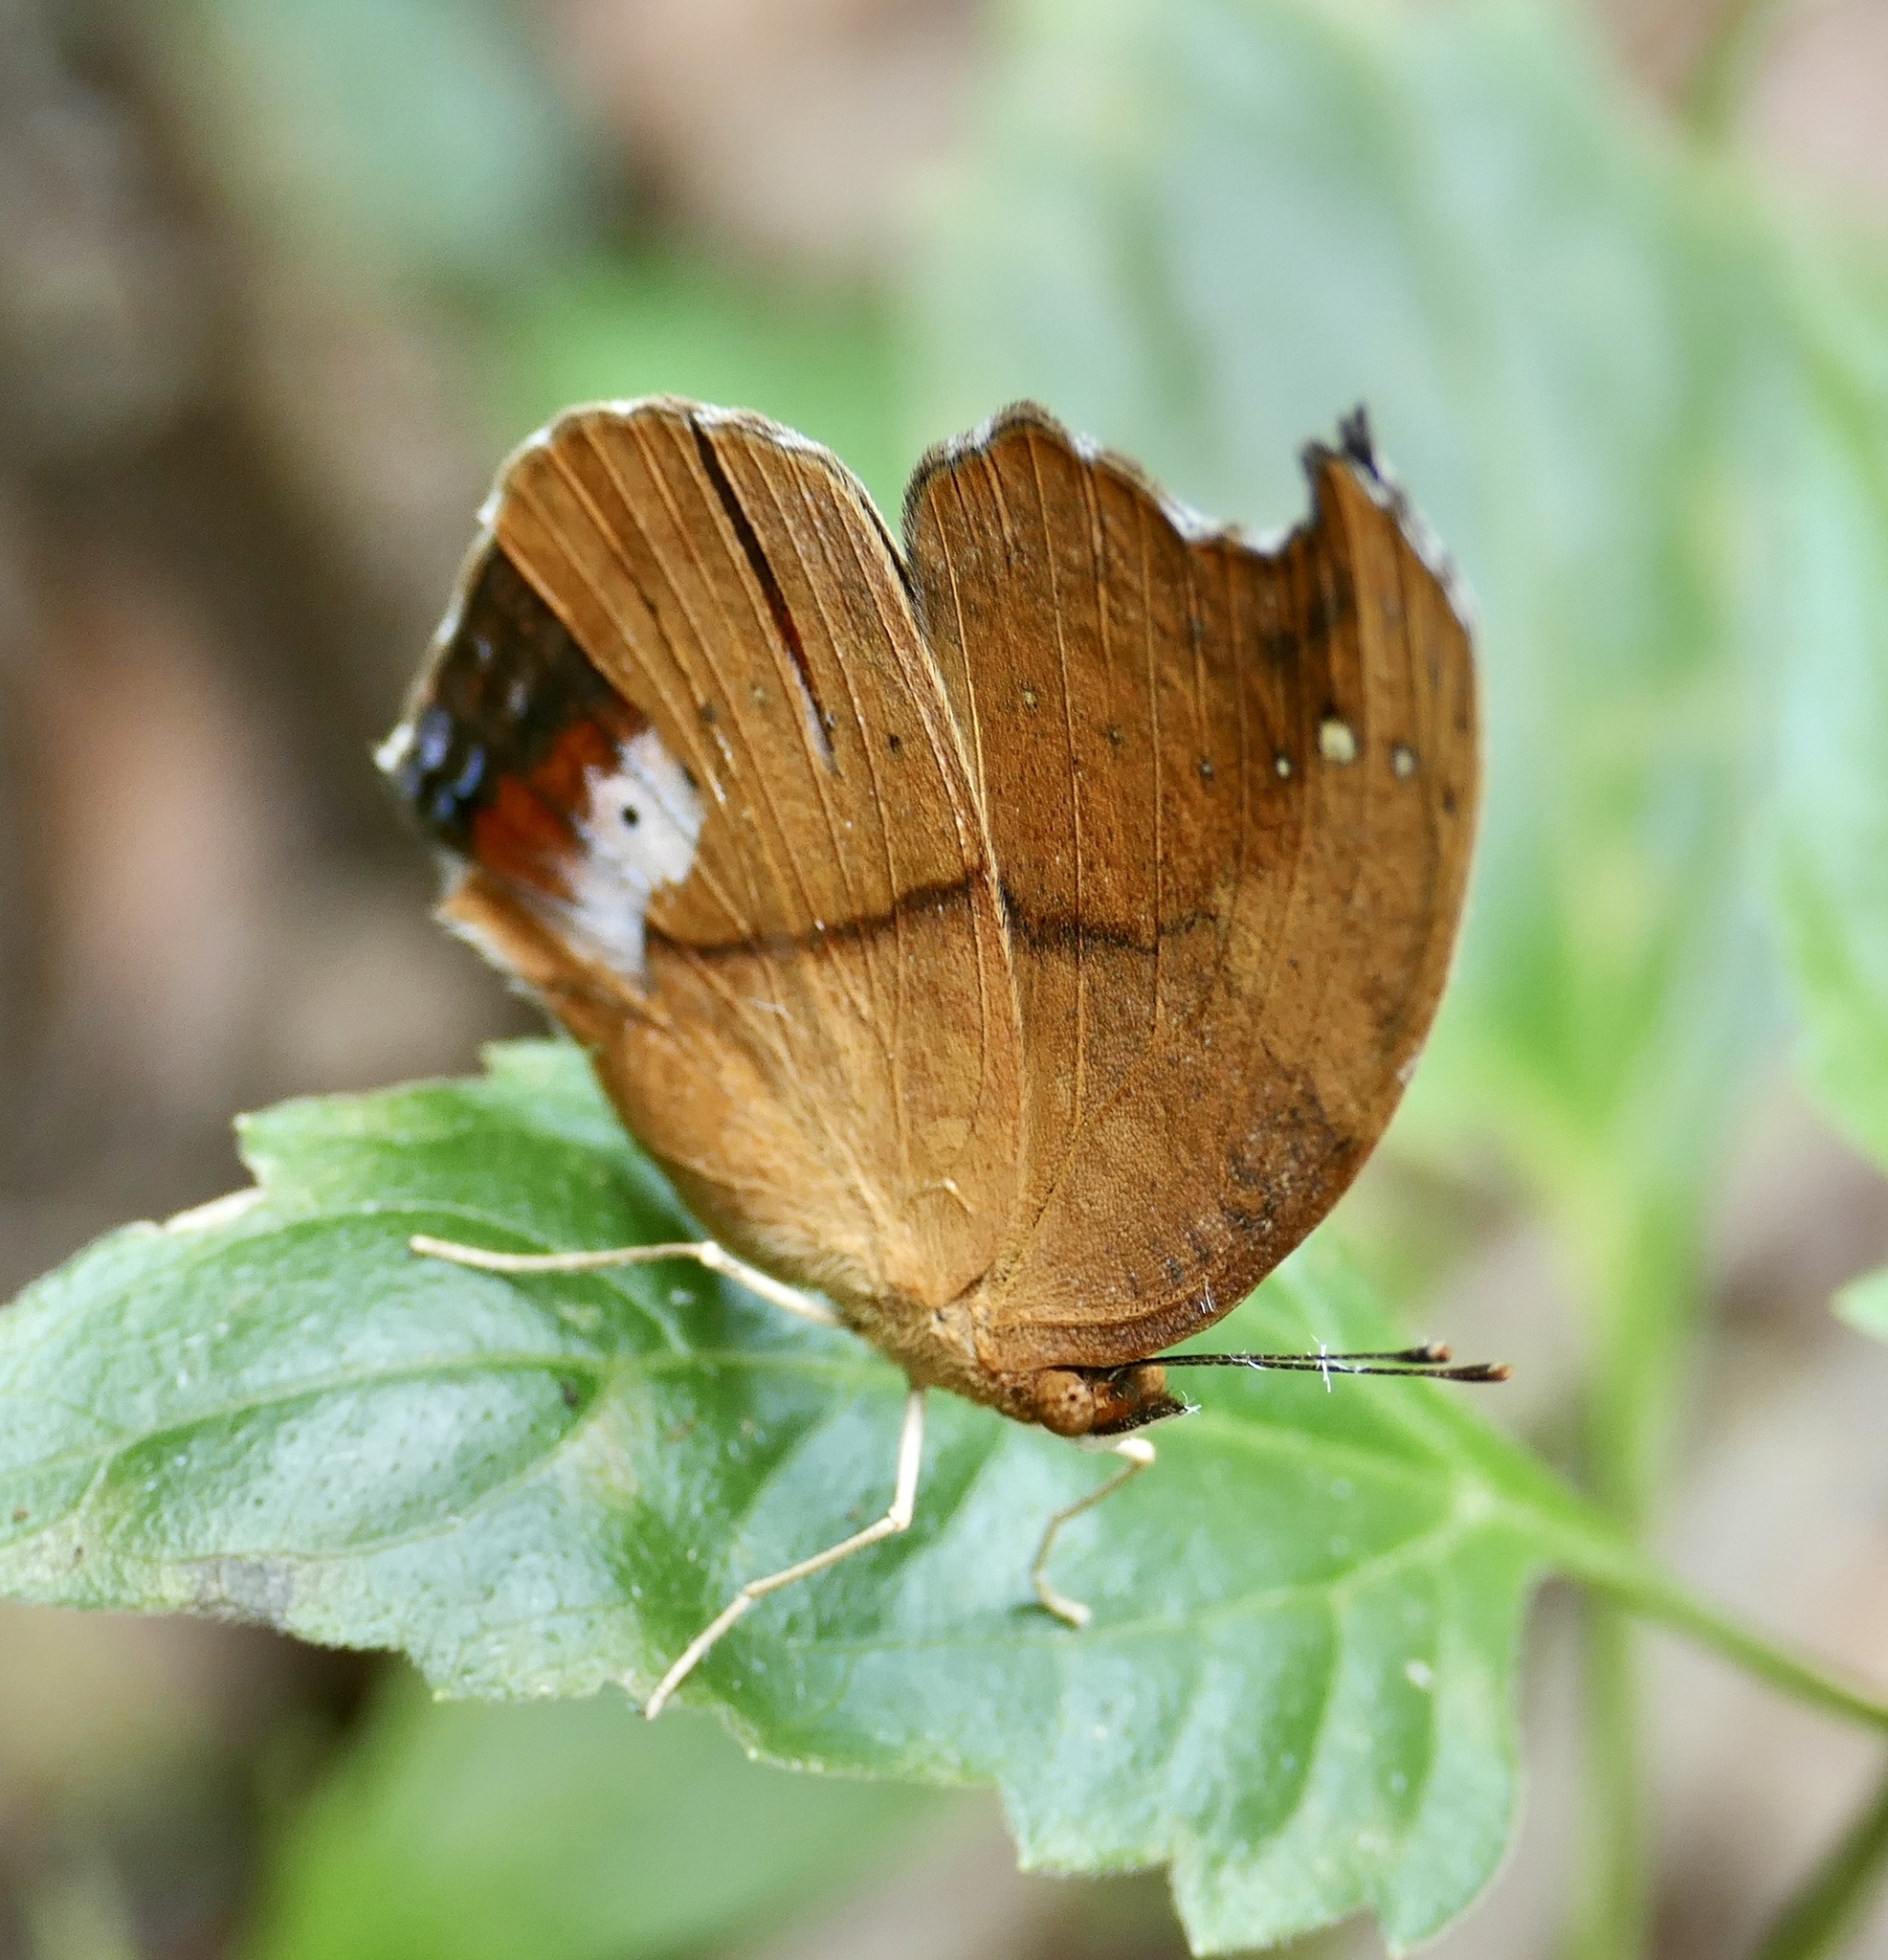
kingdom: Animalia
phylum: Arthropoda
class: Insecta
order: Lepidoptera
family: Nymphalidae
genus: Precis
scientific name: Precis pelarga
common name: Fashion commodore
